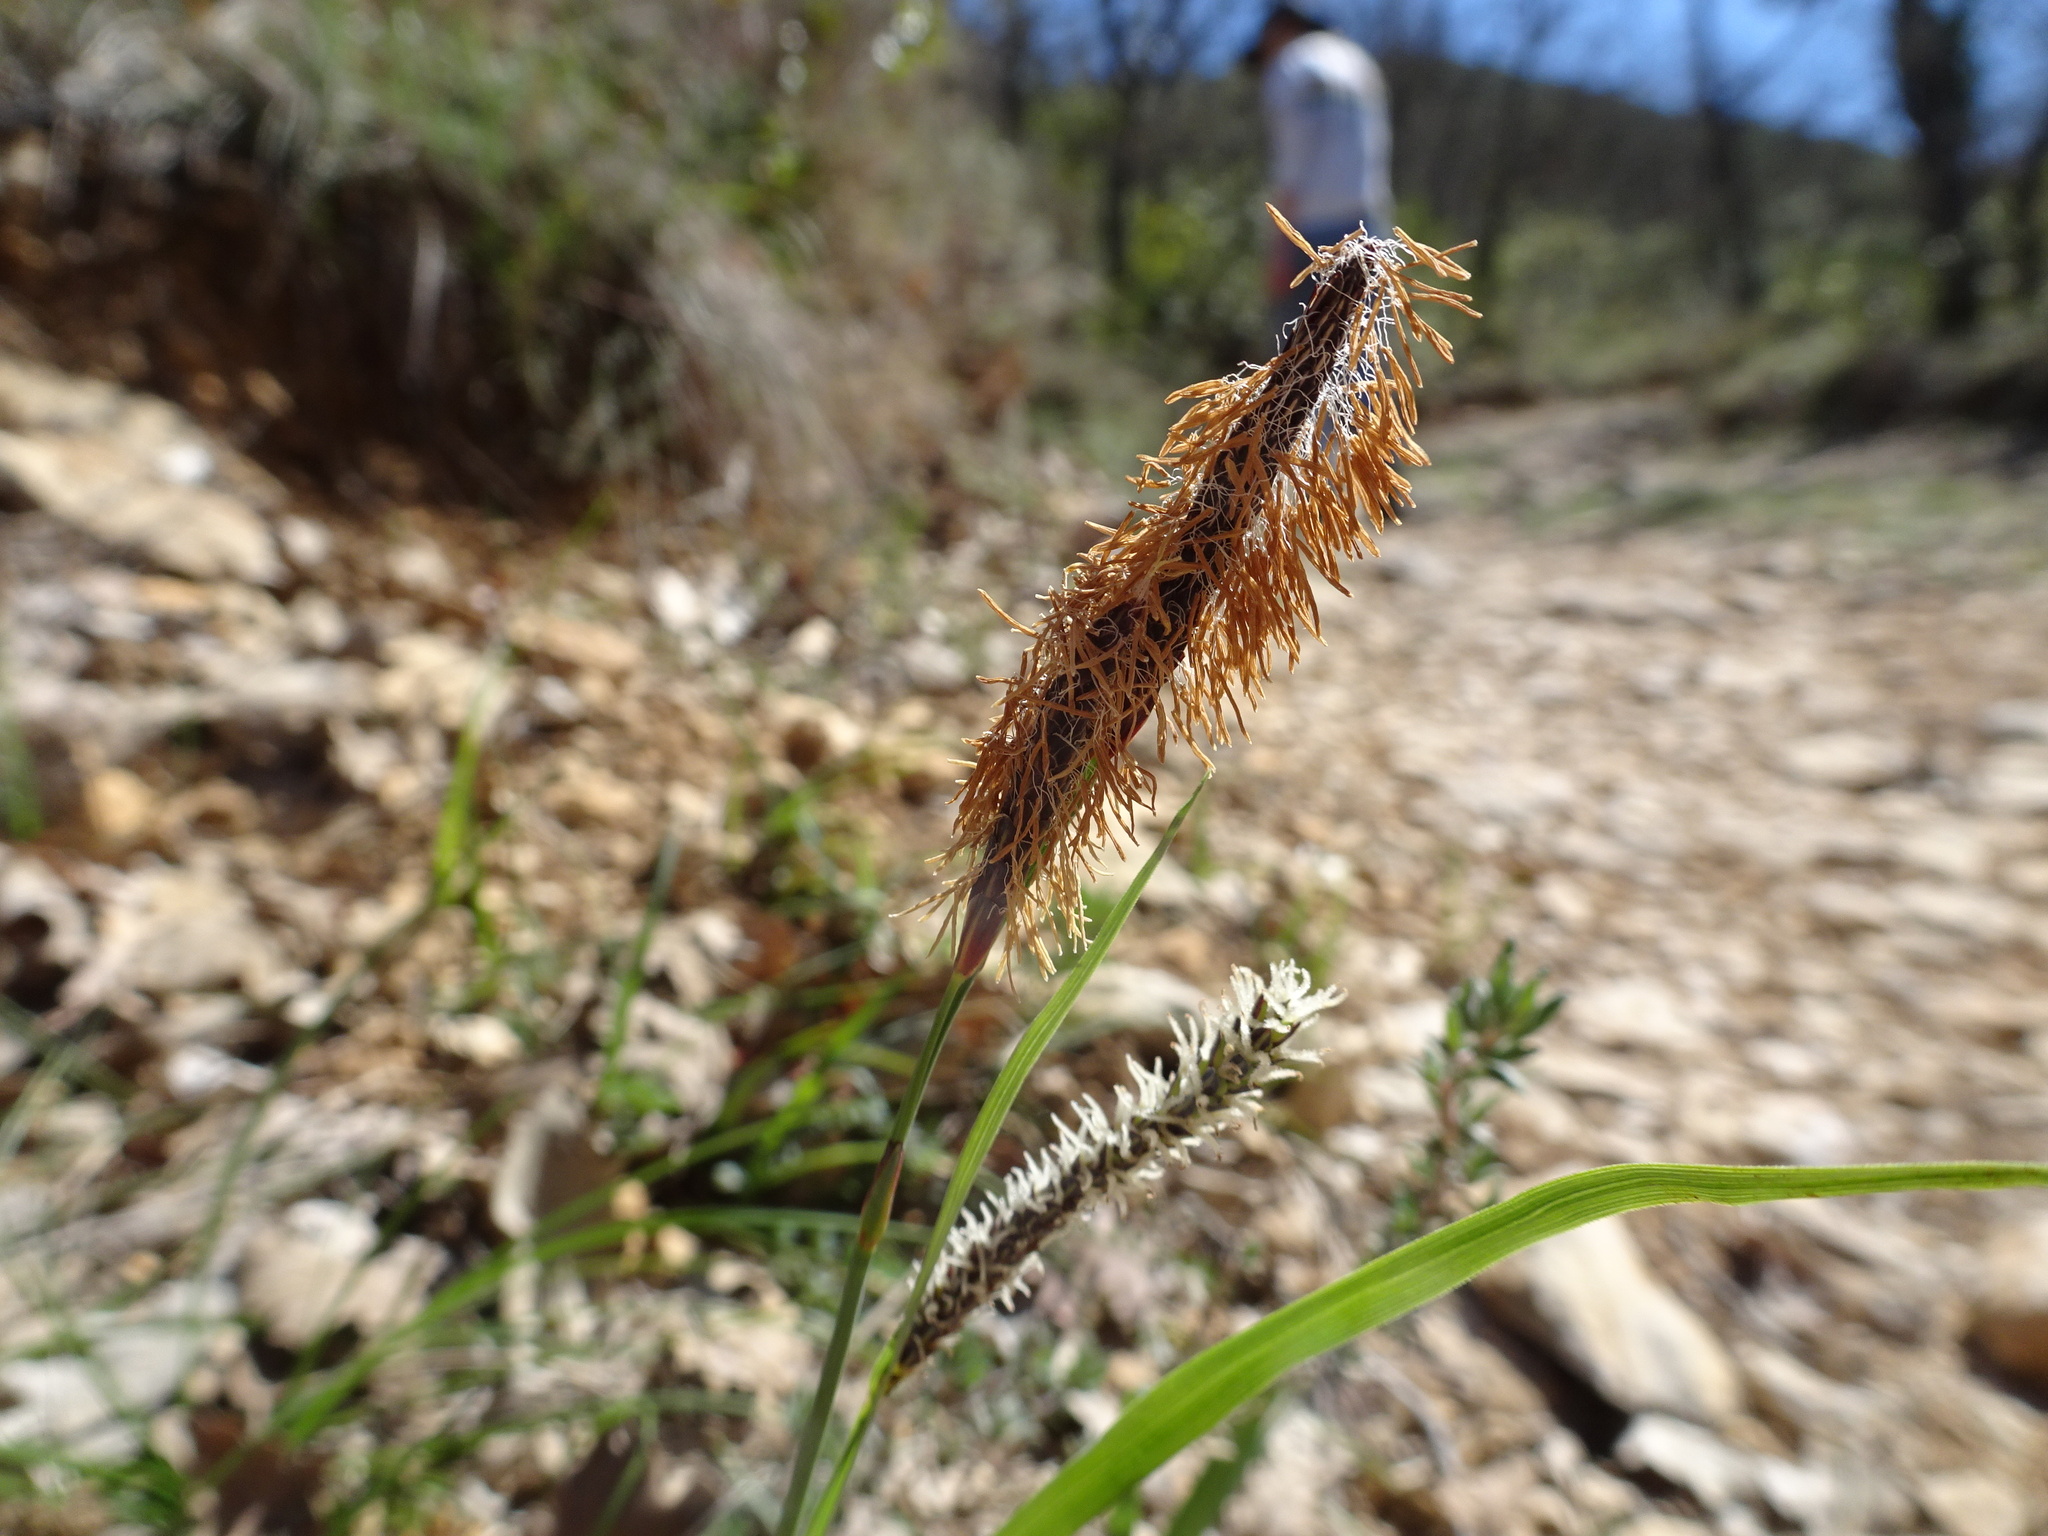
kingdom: Plantae
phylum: Tracheophyta
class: Liliopsida
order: Poales
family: Cyperaceae
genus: Carex
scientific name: Carex flacca
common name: Glaucous sedge
